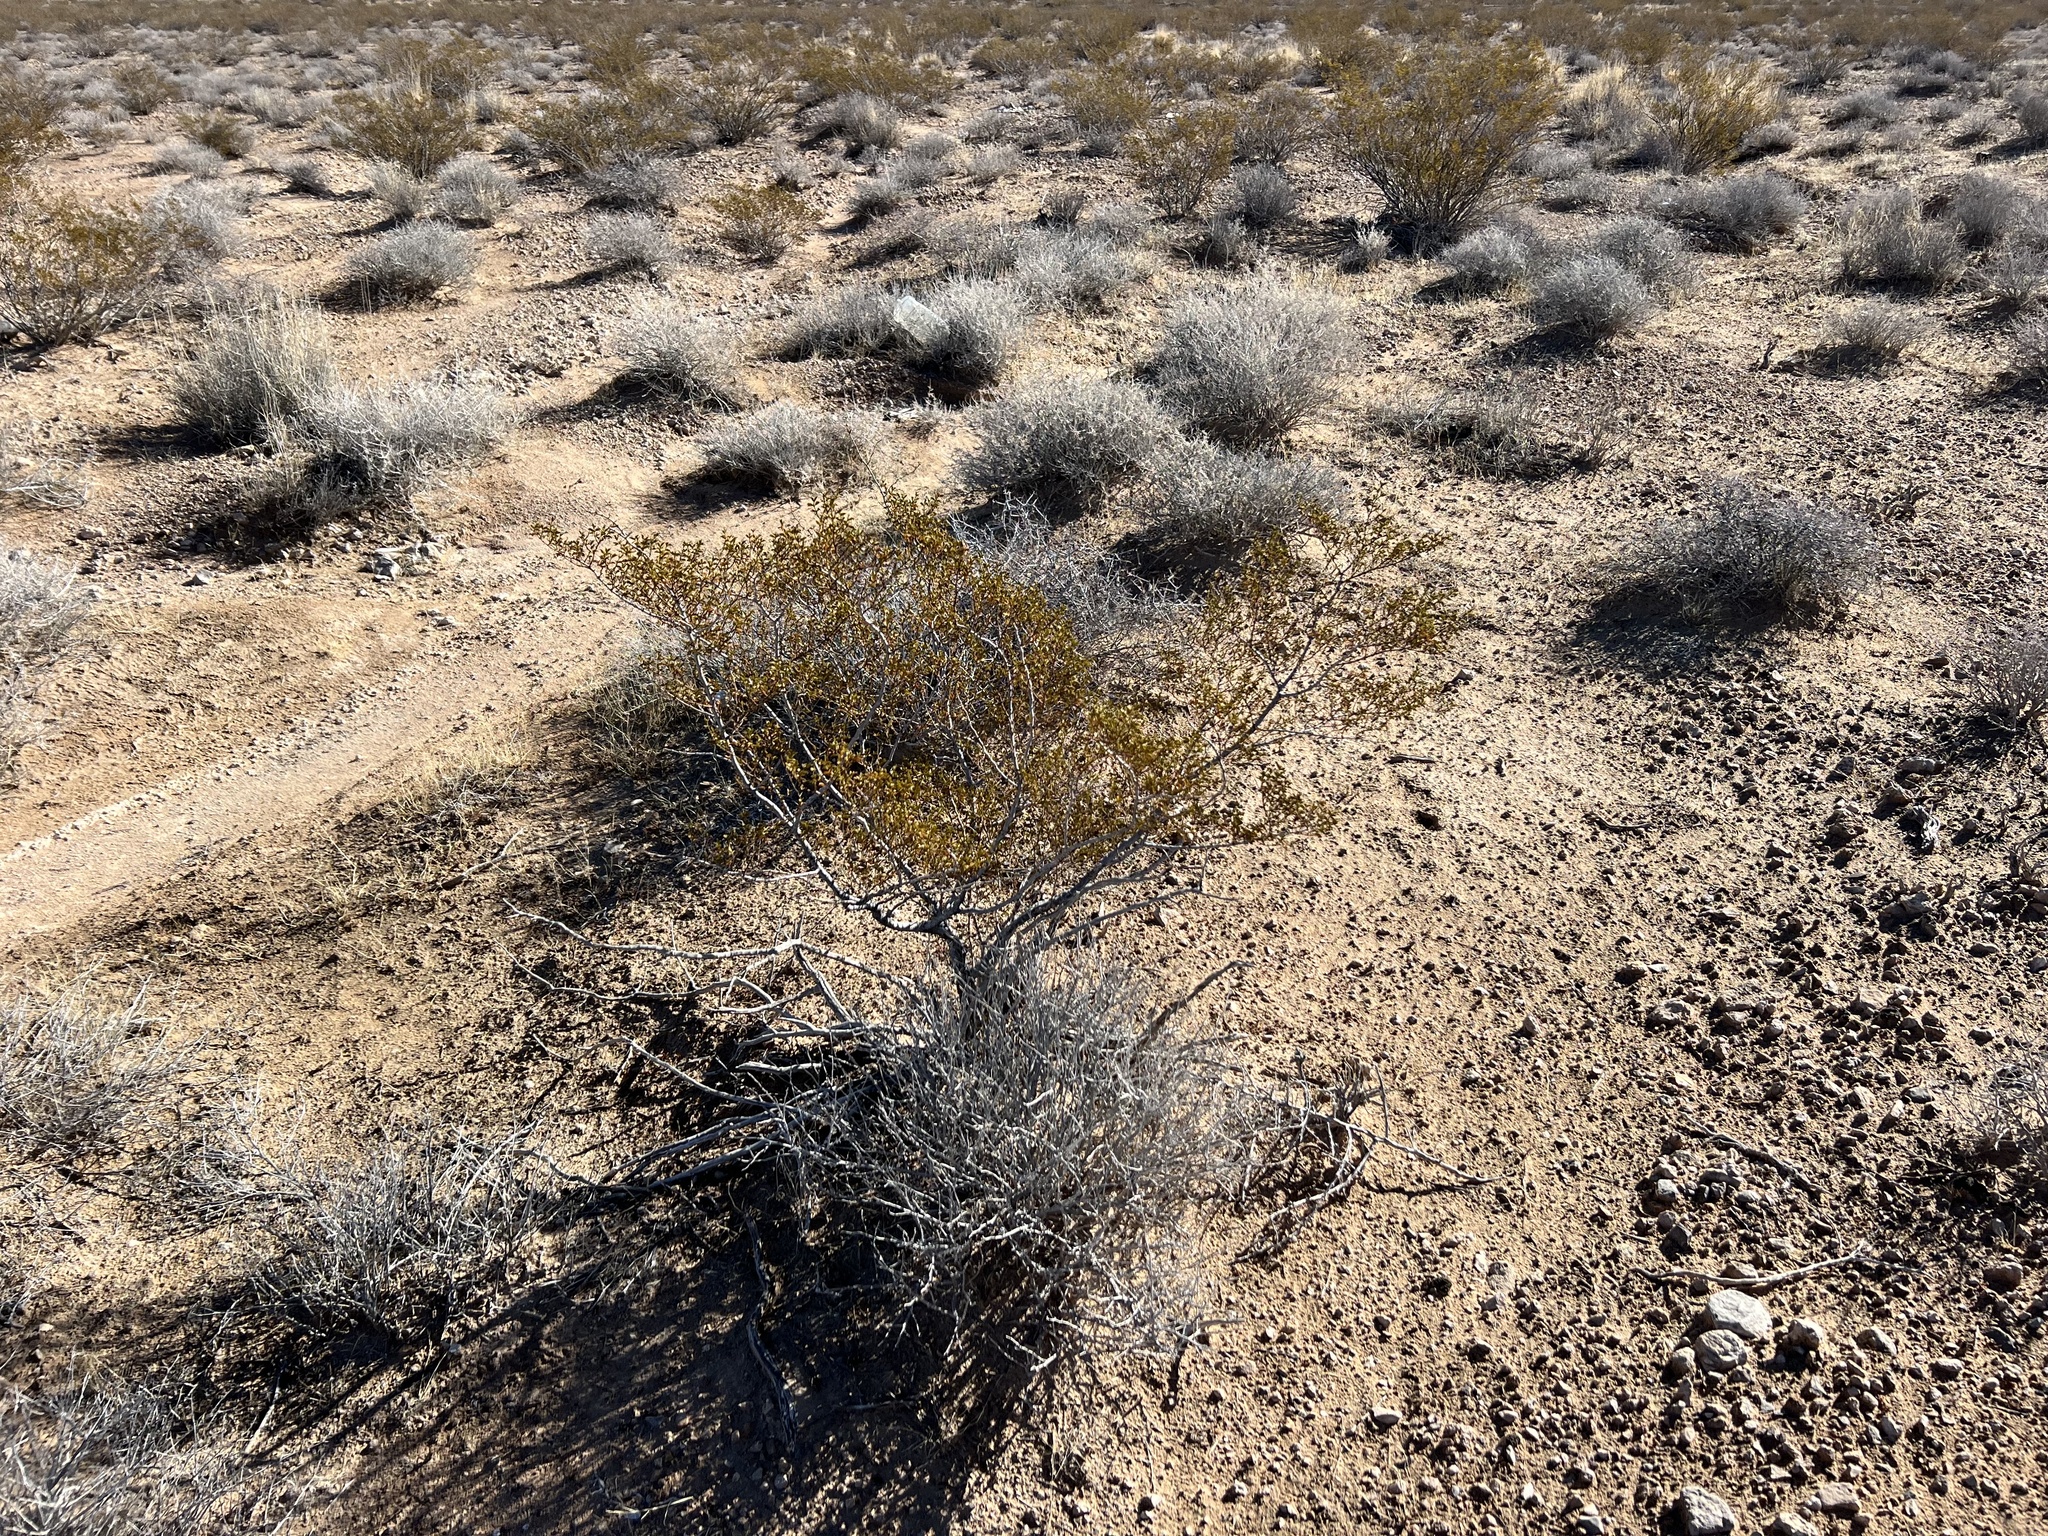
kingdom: Plantae
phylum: Tracheophyta
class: Magnoliopsida
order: Zygophyllales
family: Zygophyllaceae
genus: Larrea
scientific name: Larrea tridentata
